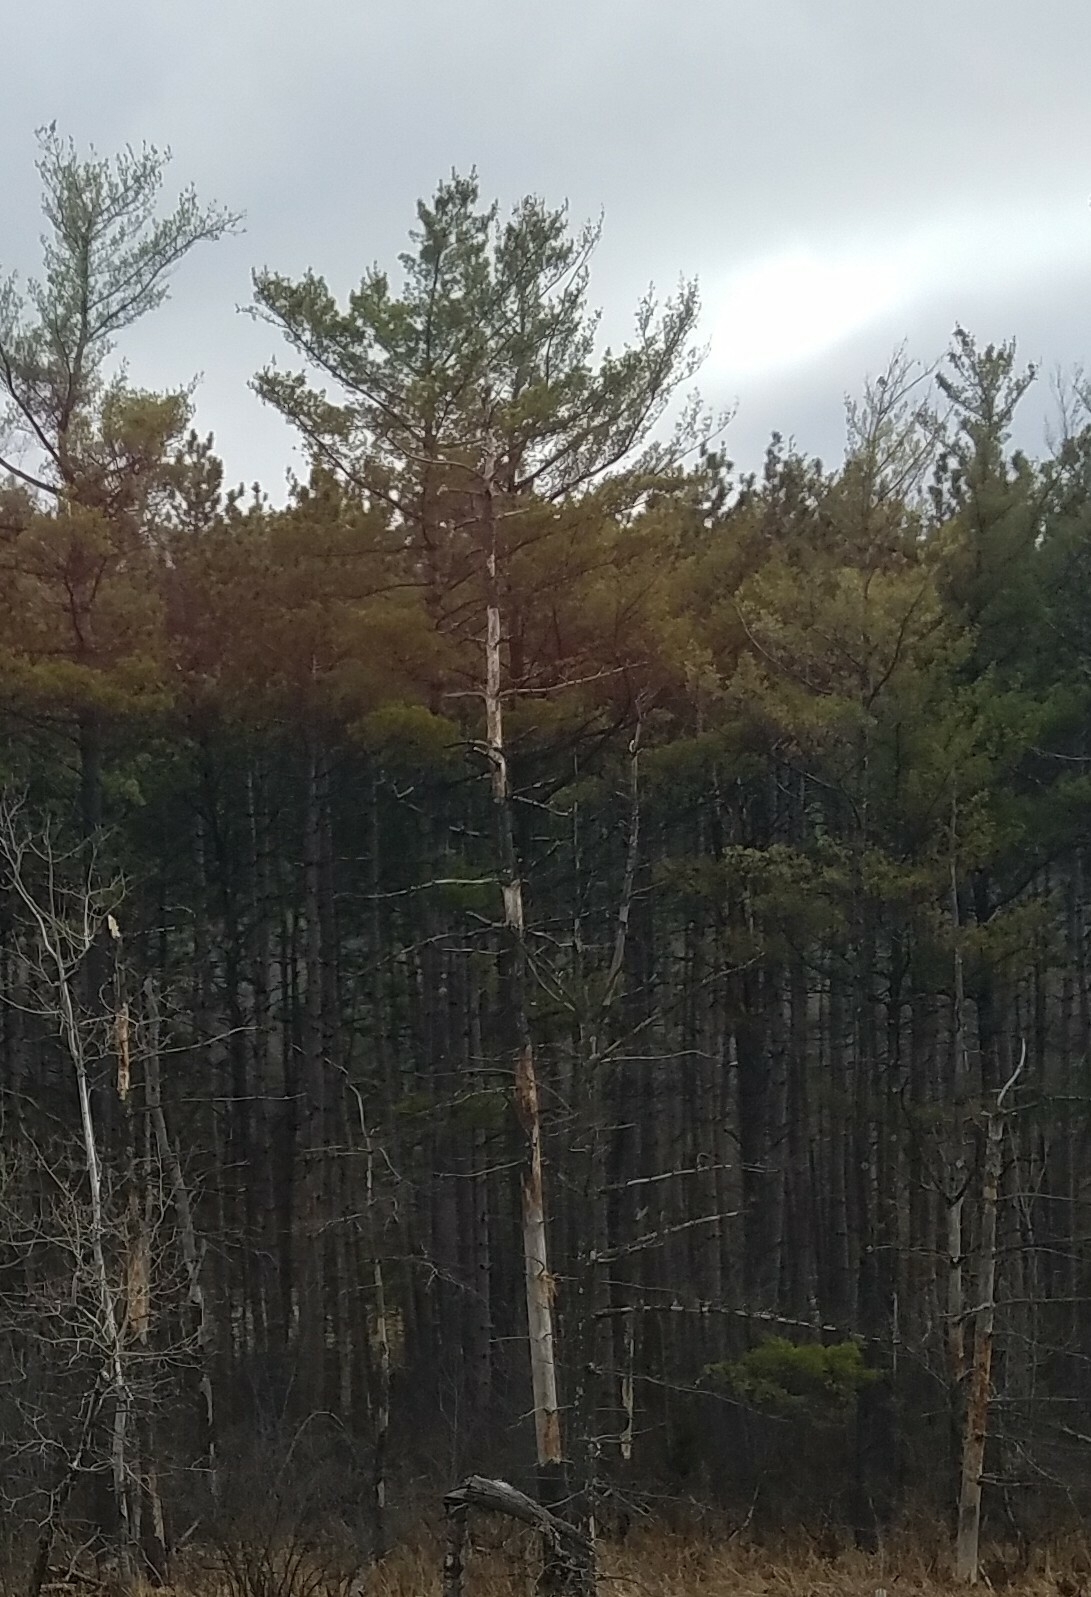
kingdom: Plantae
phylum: Tracheophyta
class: Pinopsida
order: Pinales
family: Pinaceae
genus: Pinus
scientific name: Pinus strobus
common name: Weymouth pine
